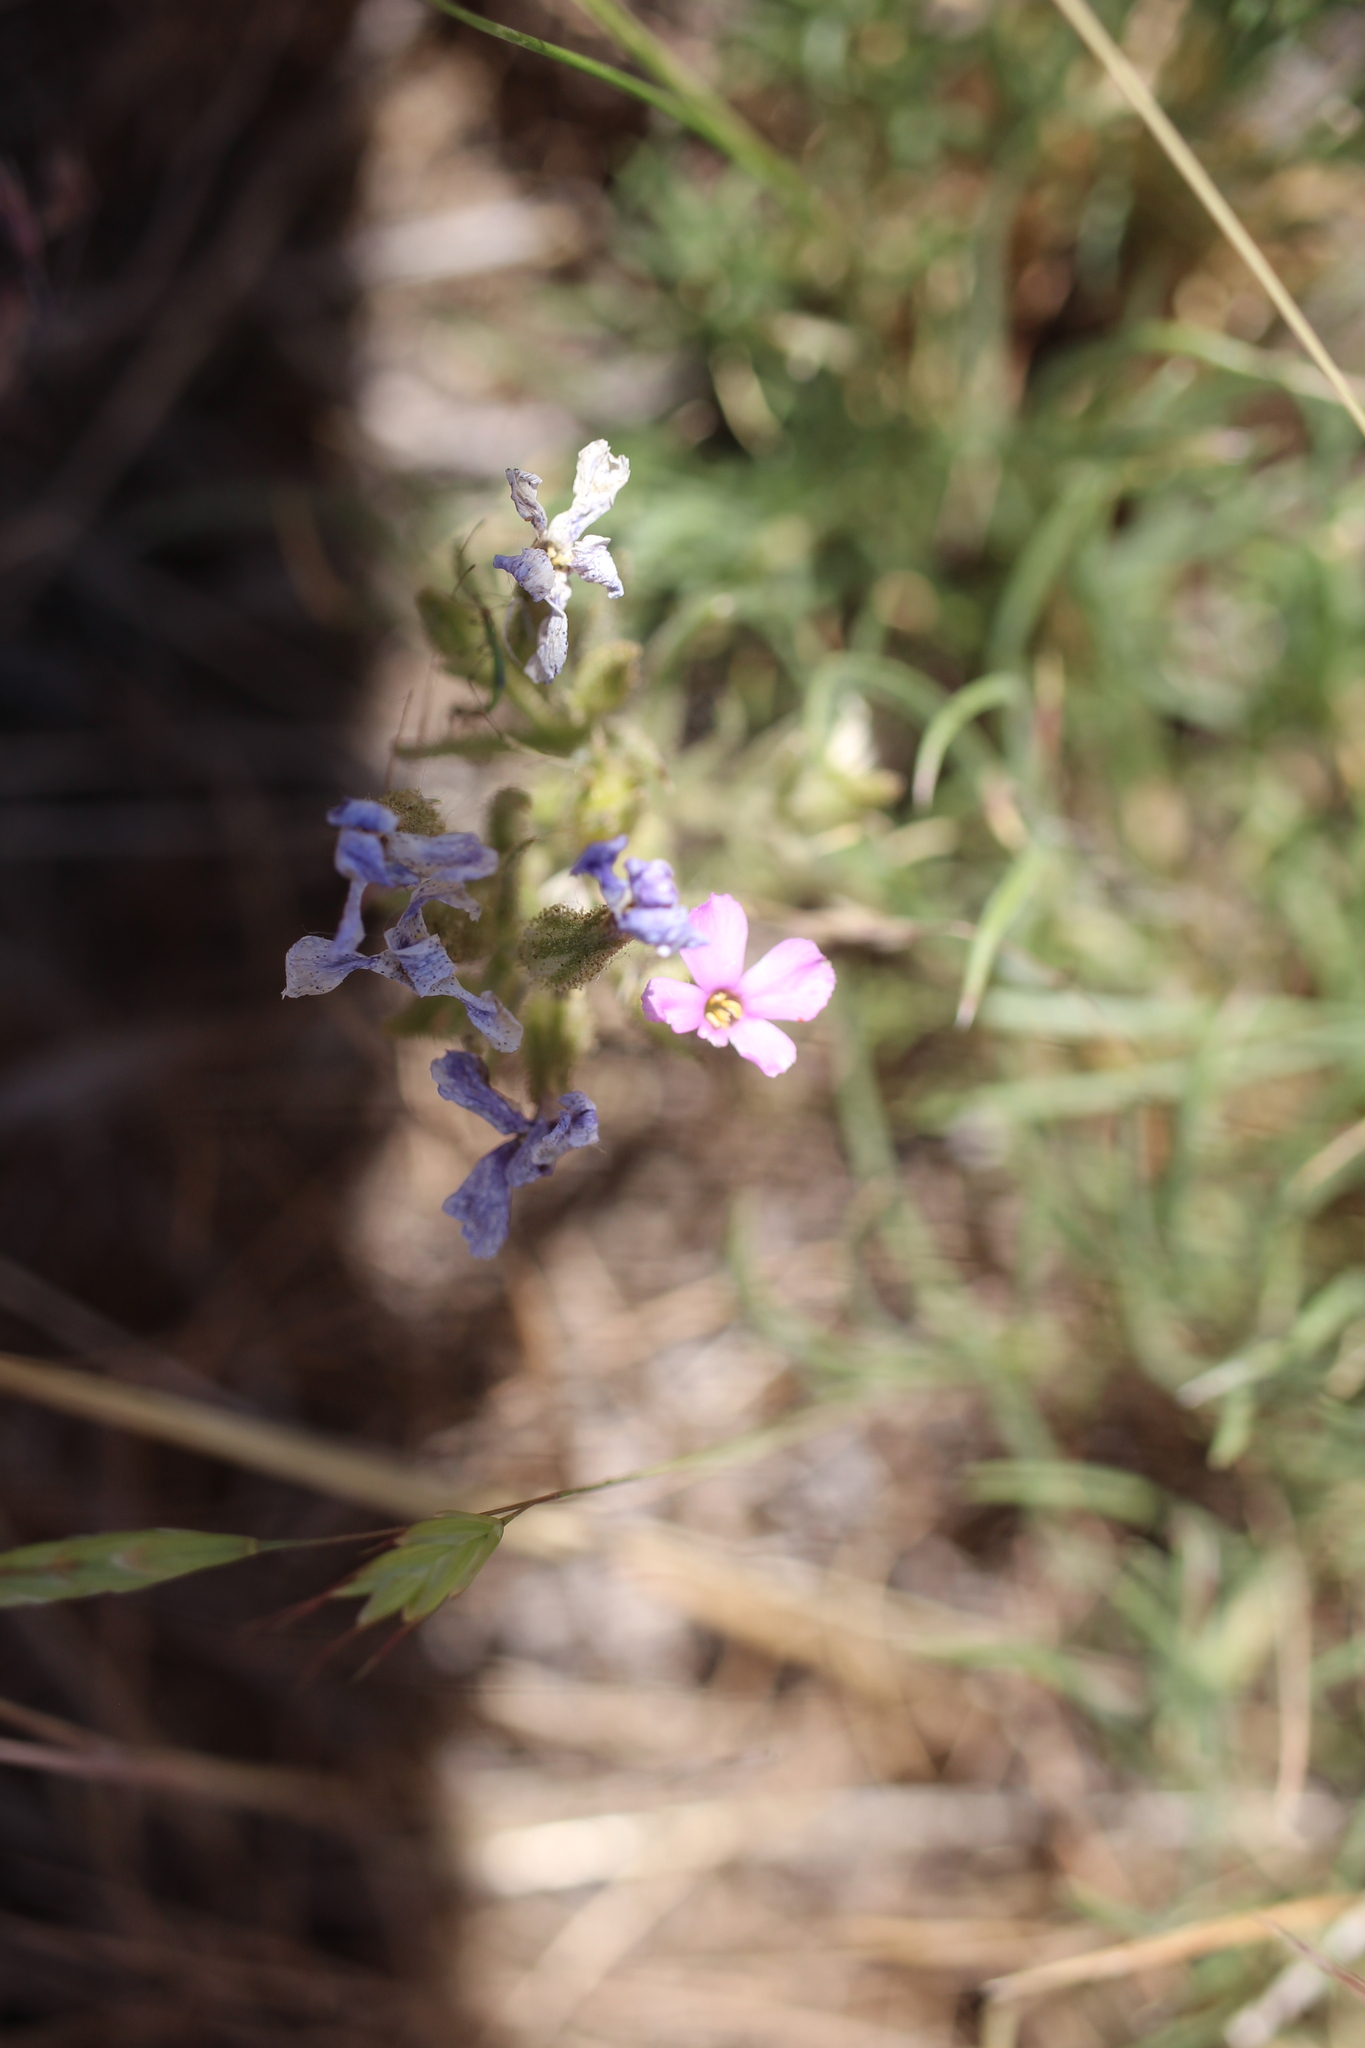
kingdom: Plantae
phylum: Tracheophyta
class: Magnoliopsida
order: Ericales
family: Polemoniaceae
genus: Phlox
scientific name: Phlox longifolia
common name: Longleaf phlox
